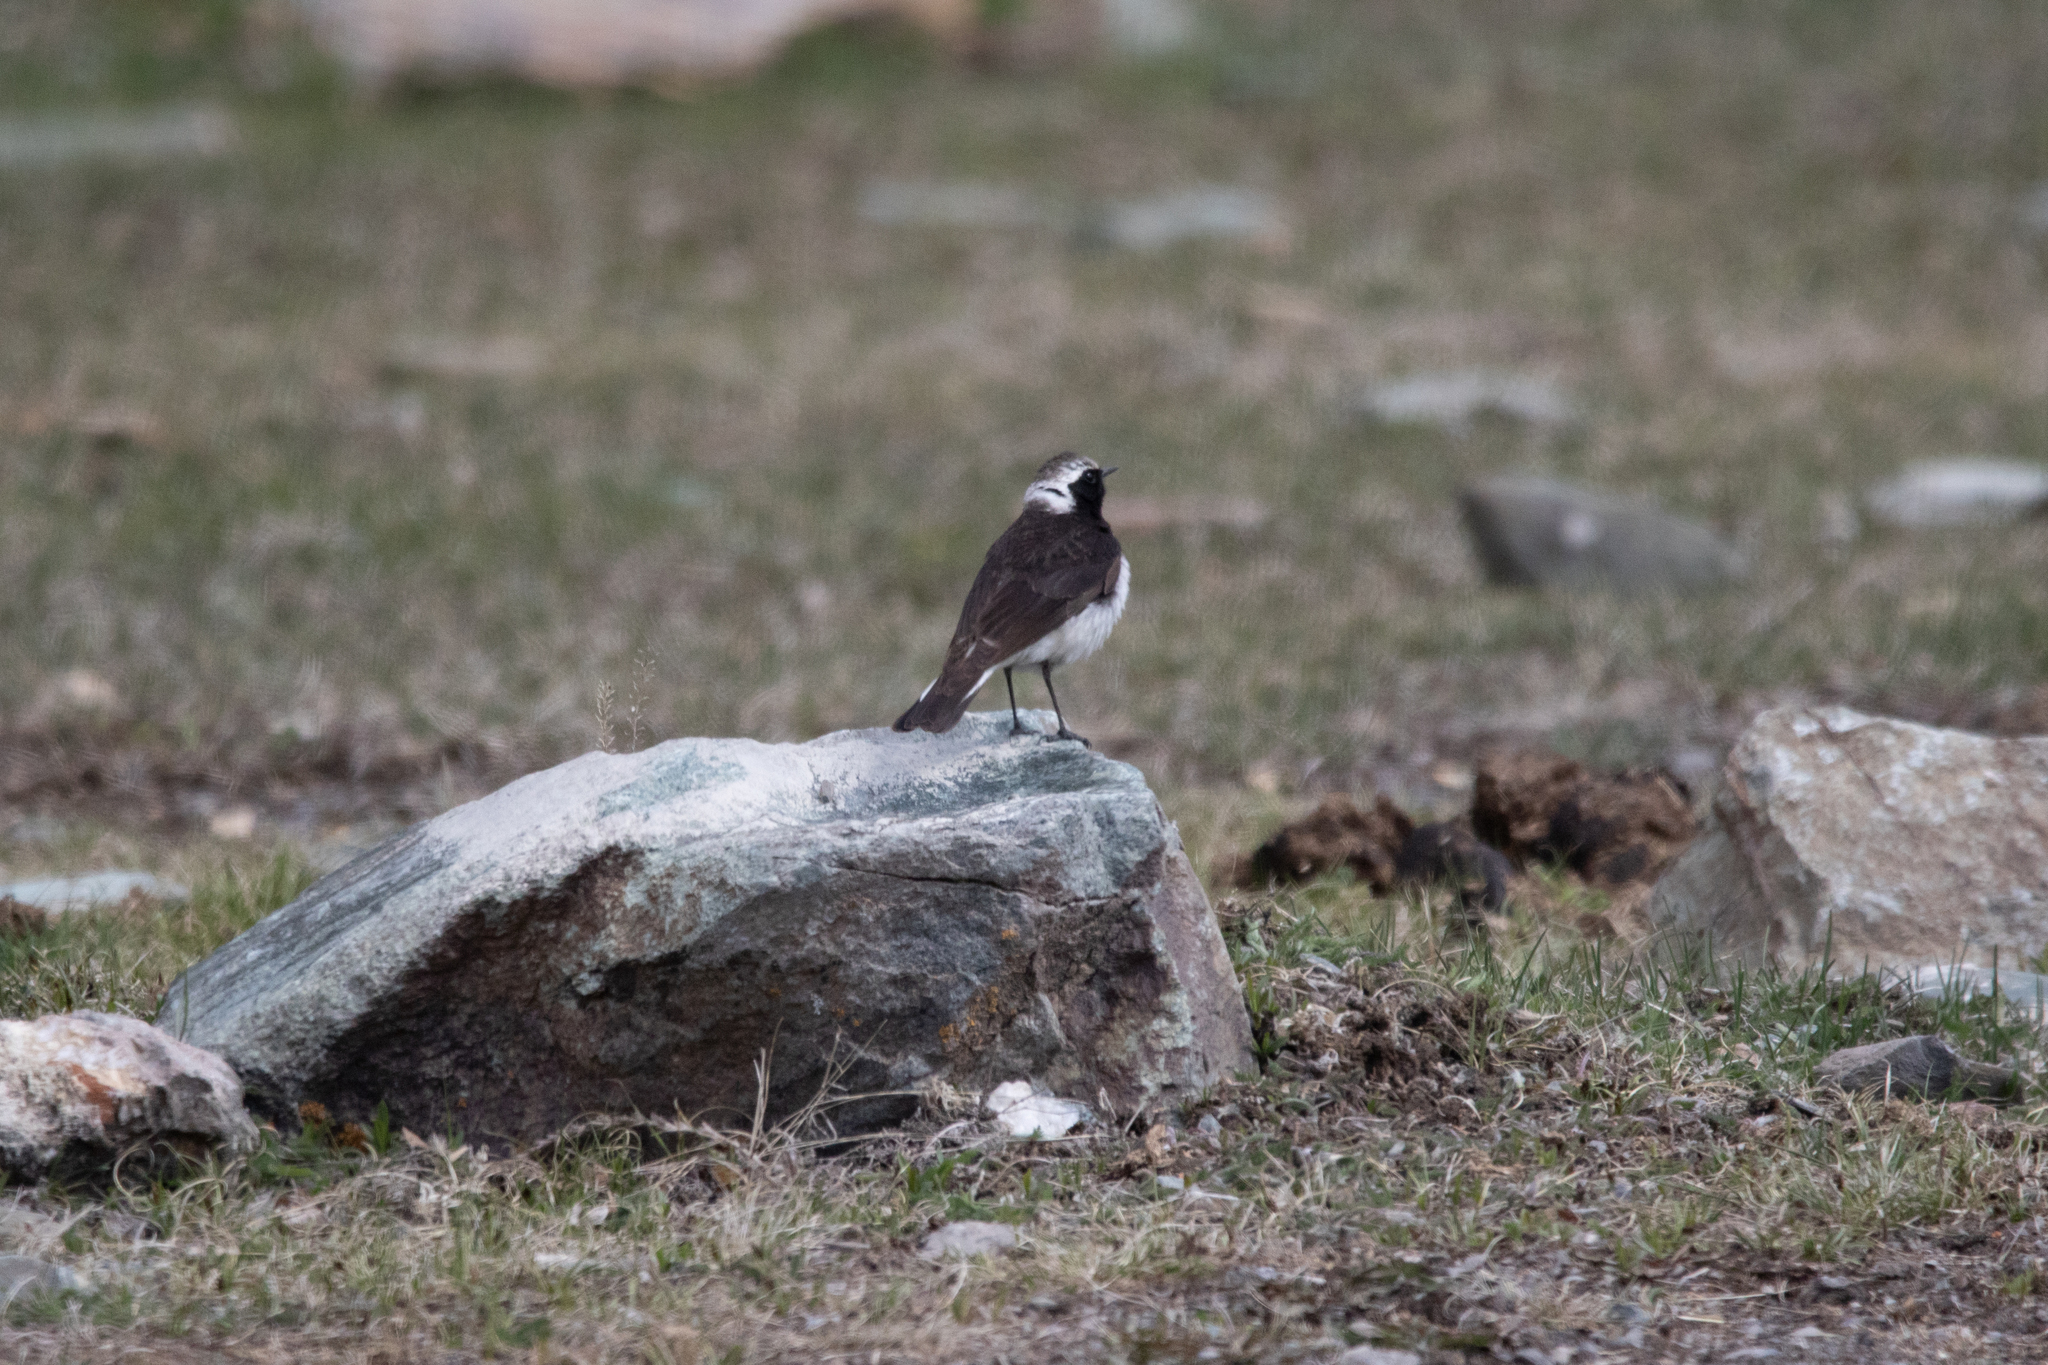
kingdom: Animalia
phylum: Chordata
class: Aves
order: Passeriformes
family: Muscicapidae
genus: Oenanthe
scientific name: Oenanthe pleschanka
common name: Pied wheatear
